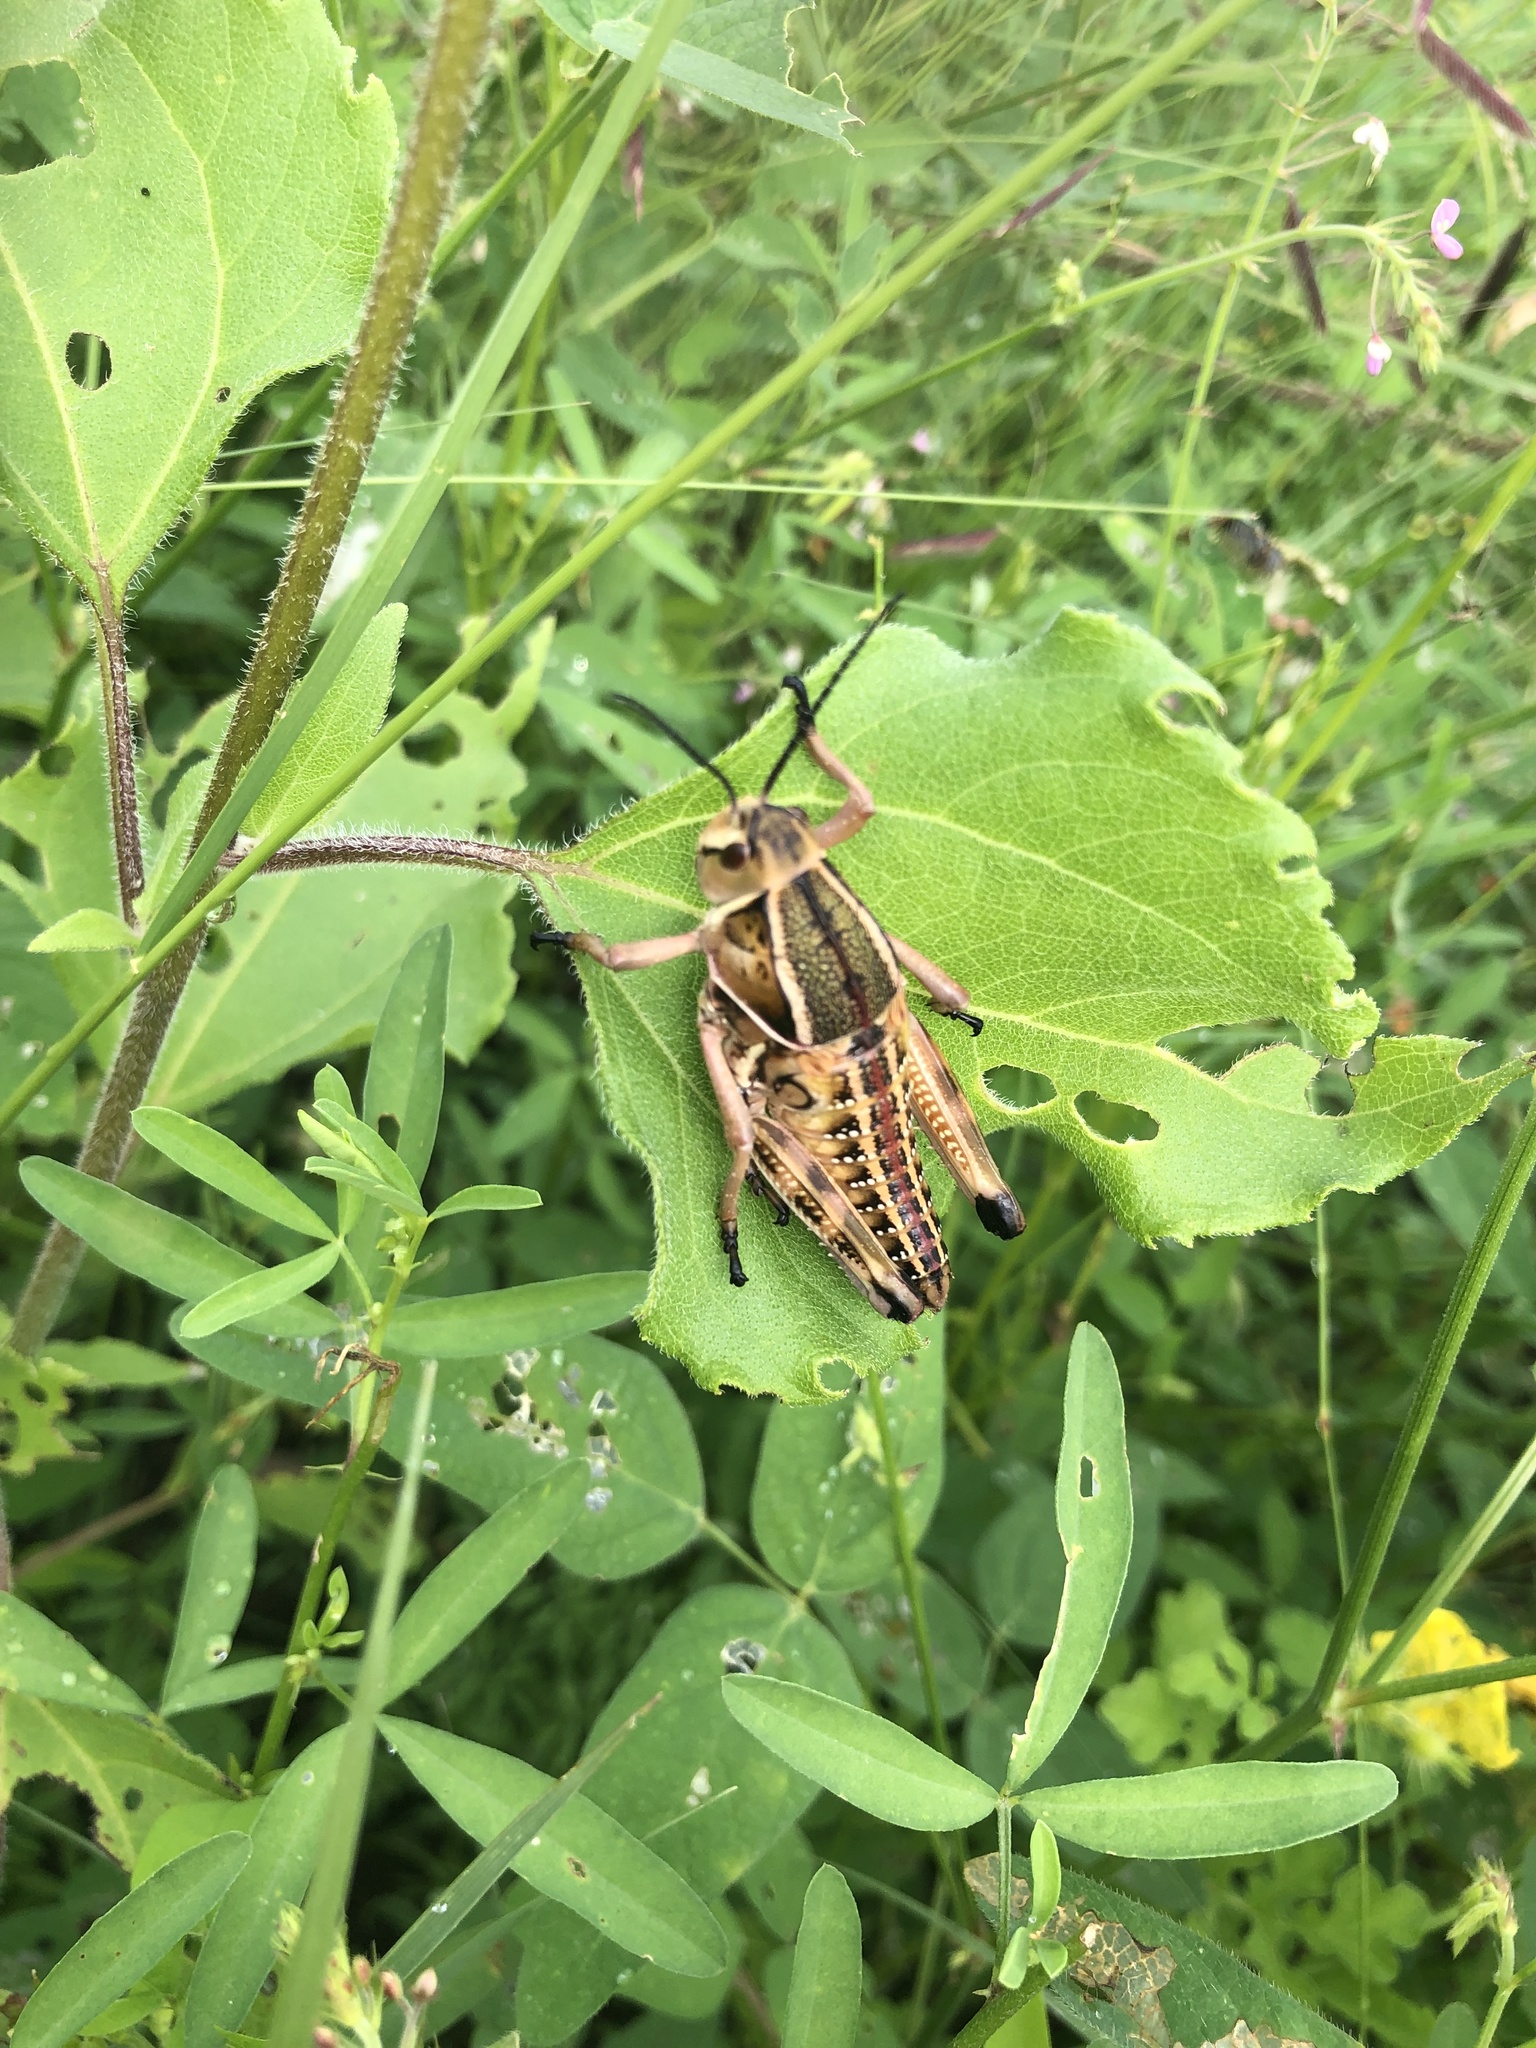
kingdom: Animalia
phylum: Arthropoda
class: Insecta
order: Orthoptera
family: Romaleidae
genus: Brachystola
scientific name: Brachystola magna
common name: Plains lubber grasshopper
